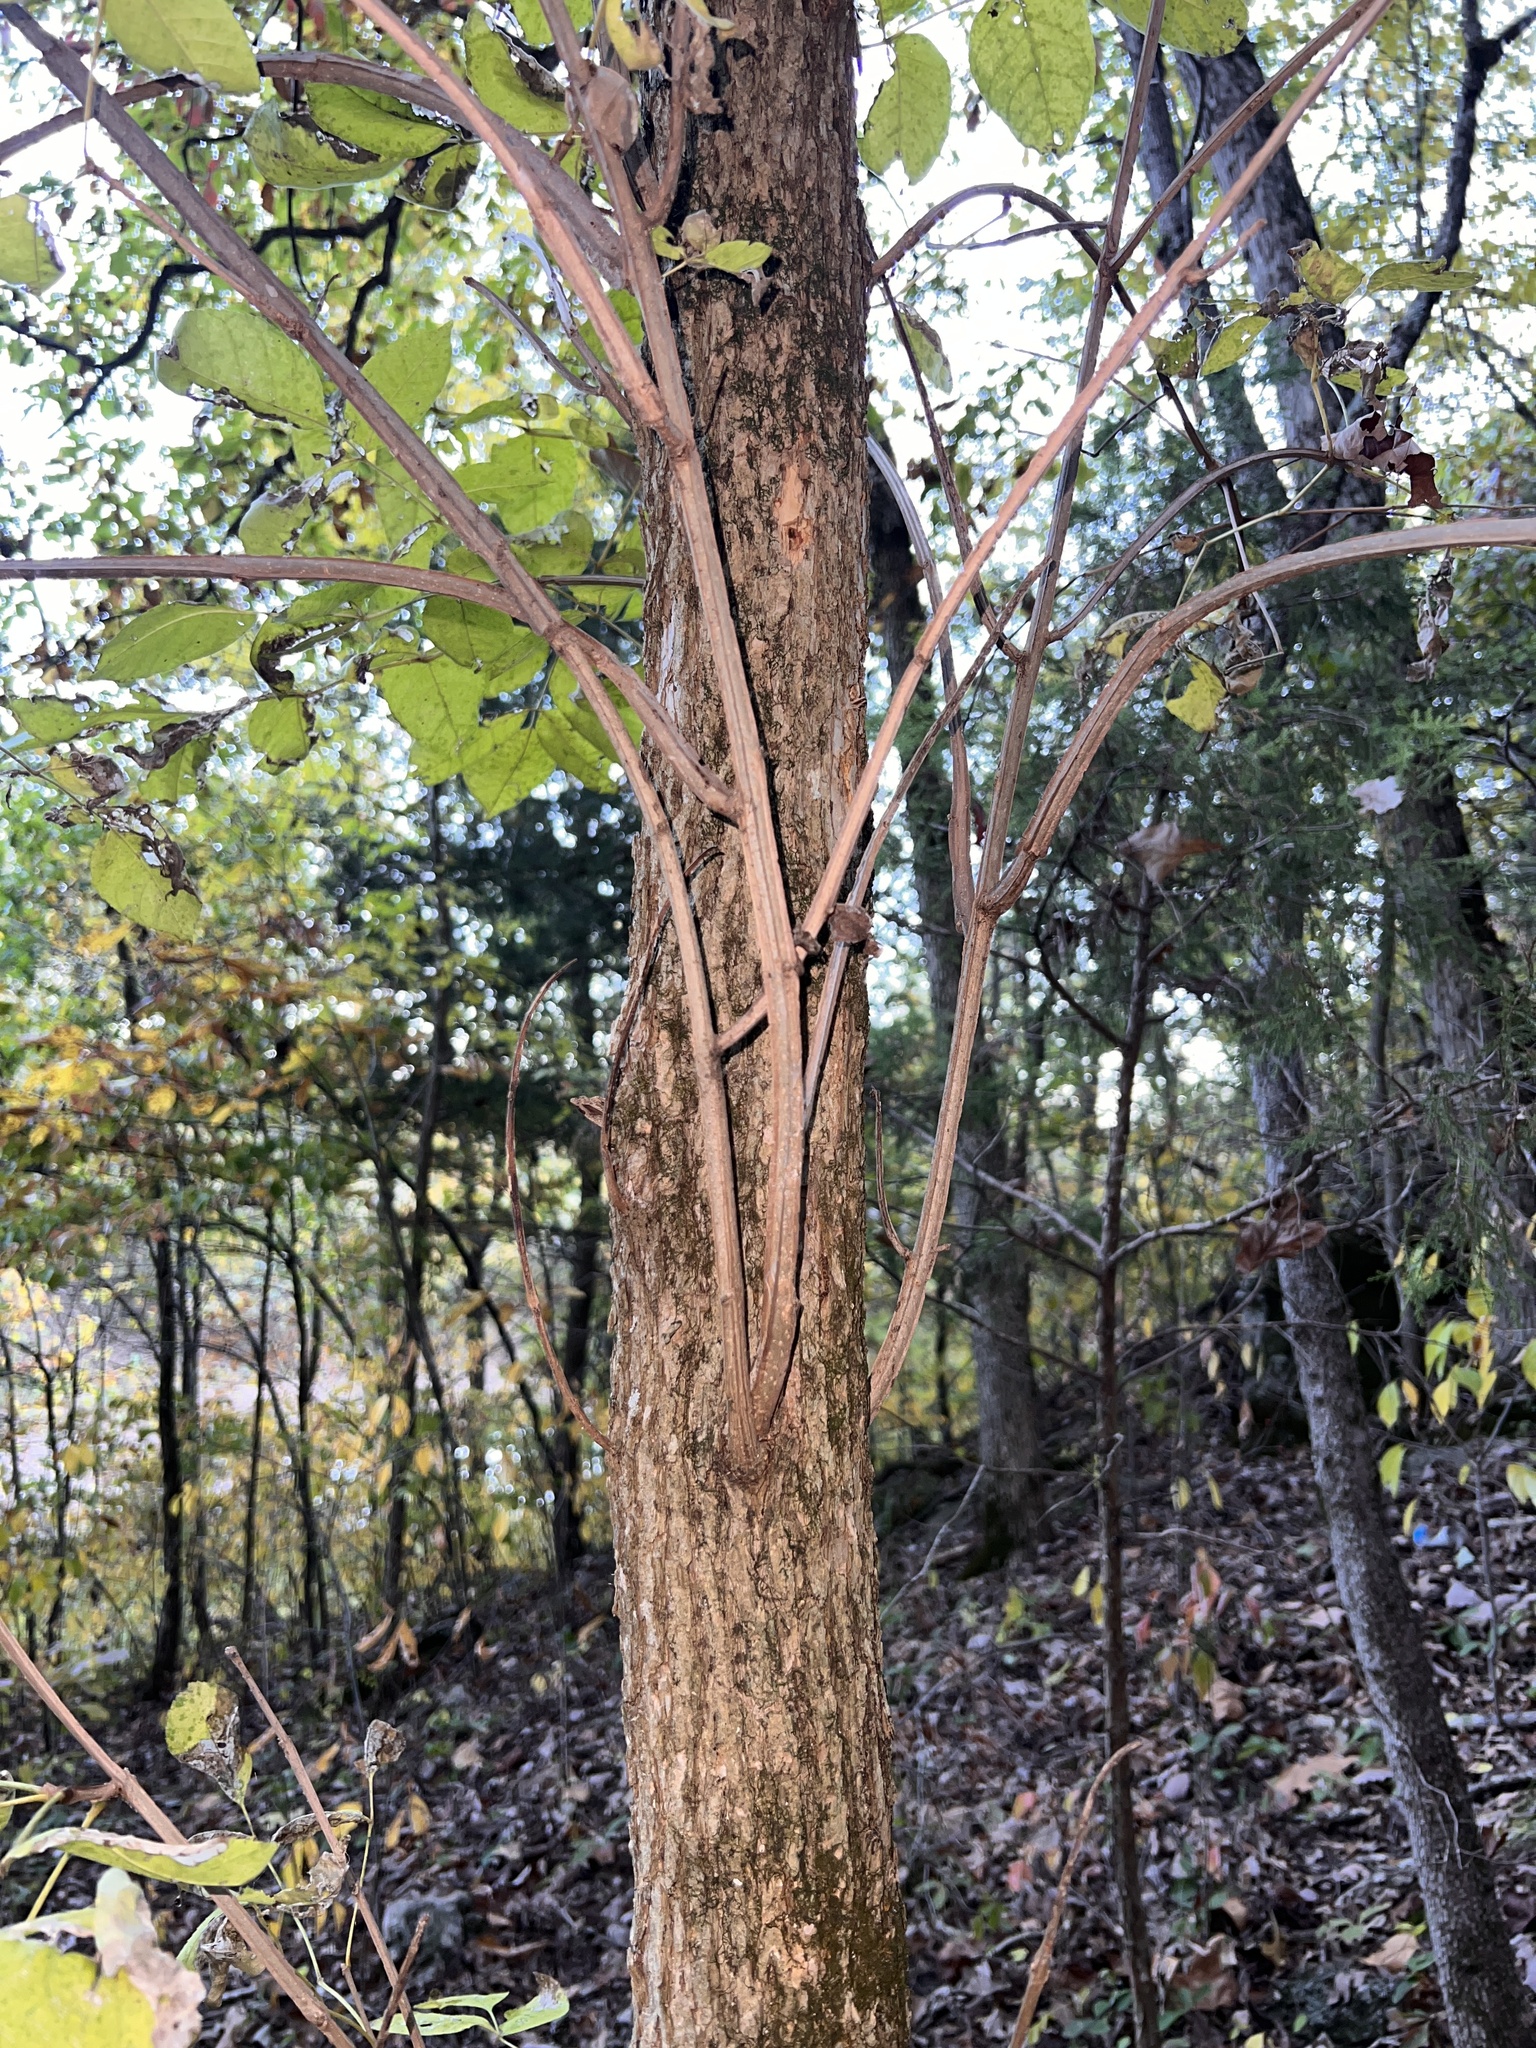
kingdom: Plantae
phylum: Tracheophyta
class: Magnoliopsida
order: Lamiales
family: Oleaceae
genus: Fraxinus
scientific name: Fraxinus quadrangulata
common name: Blue ash
